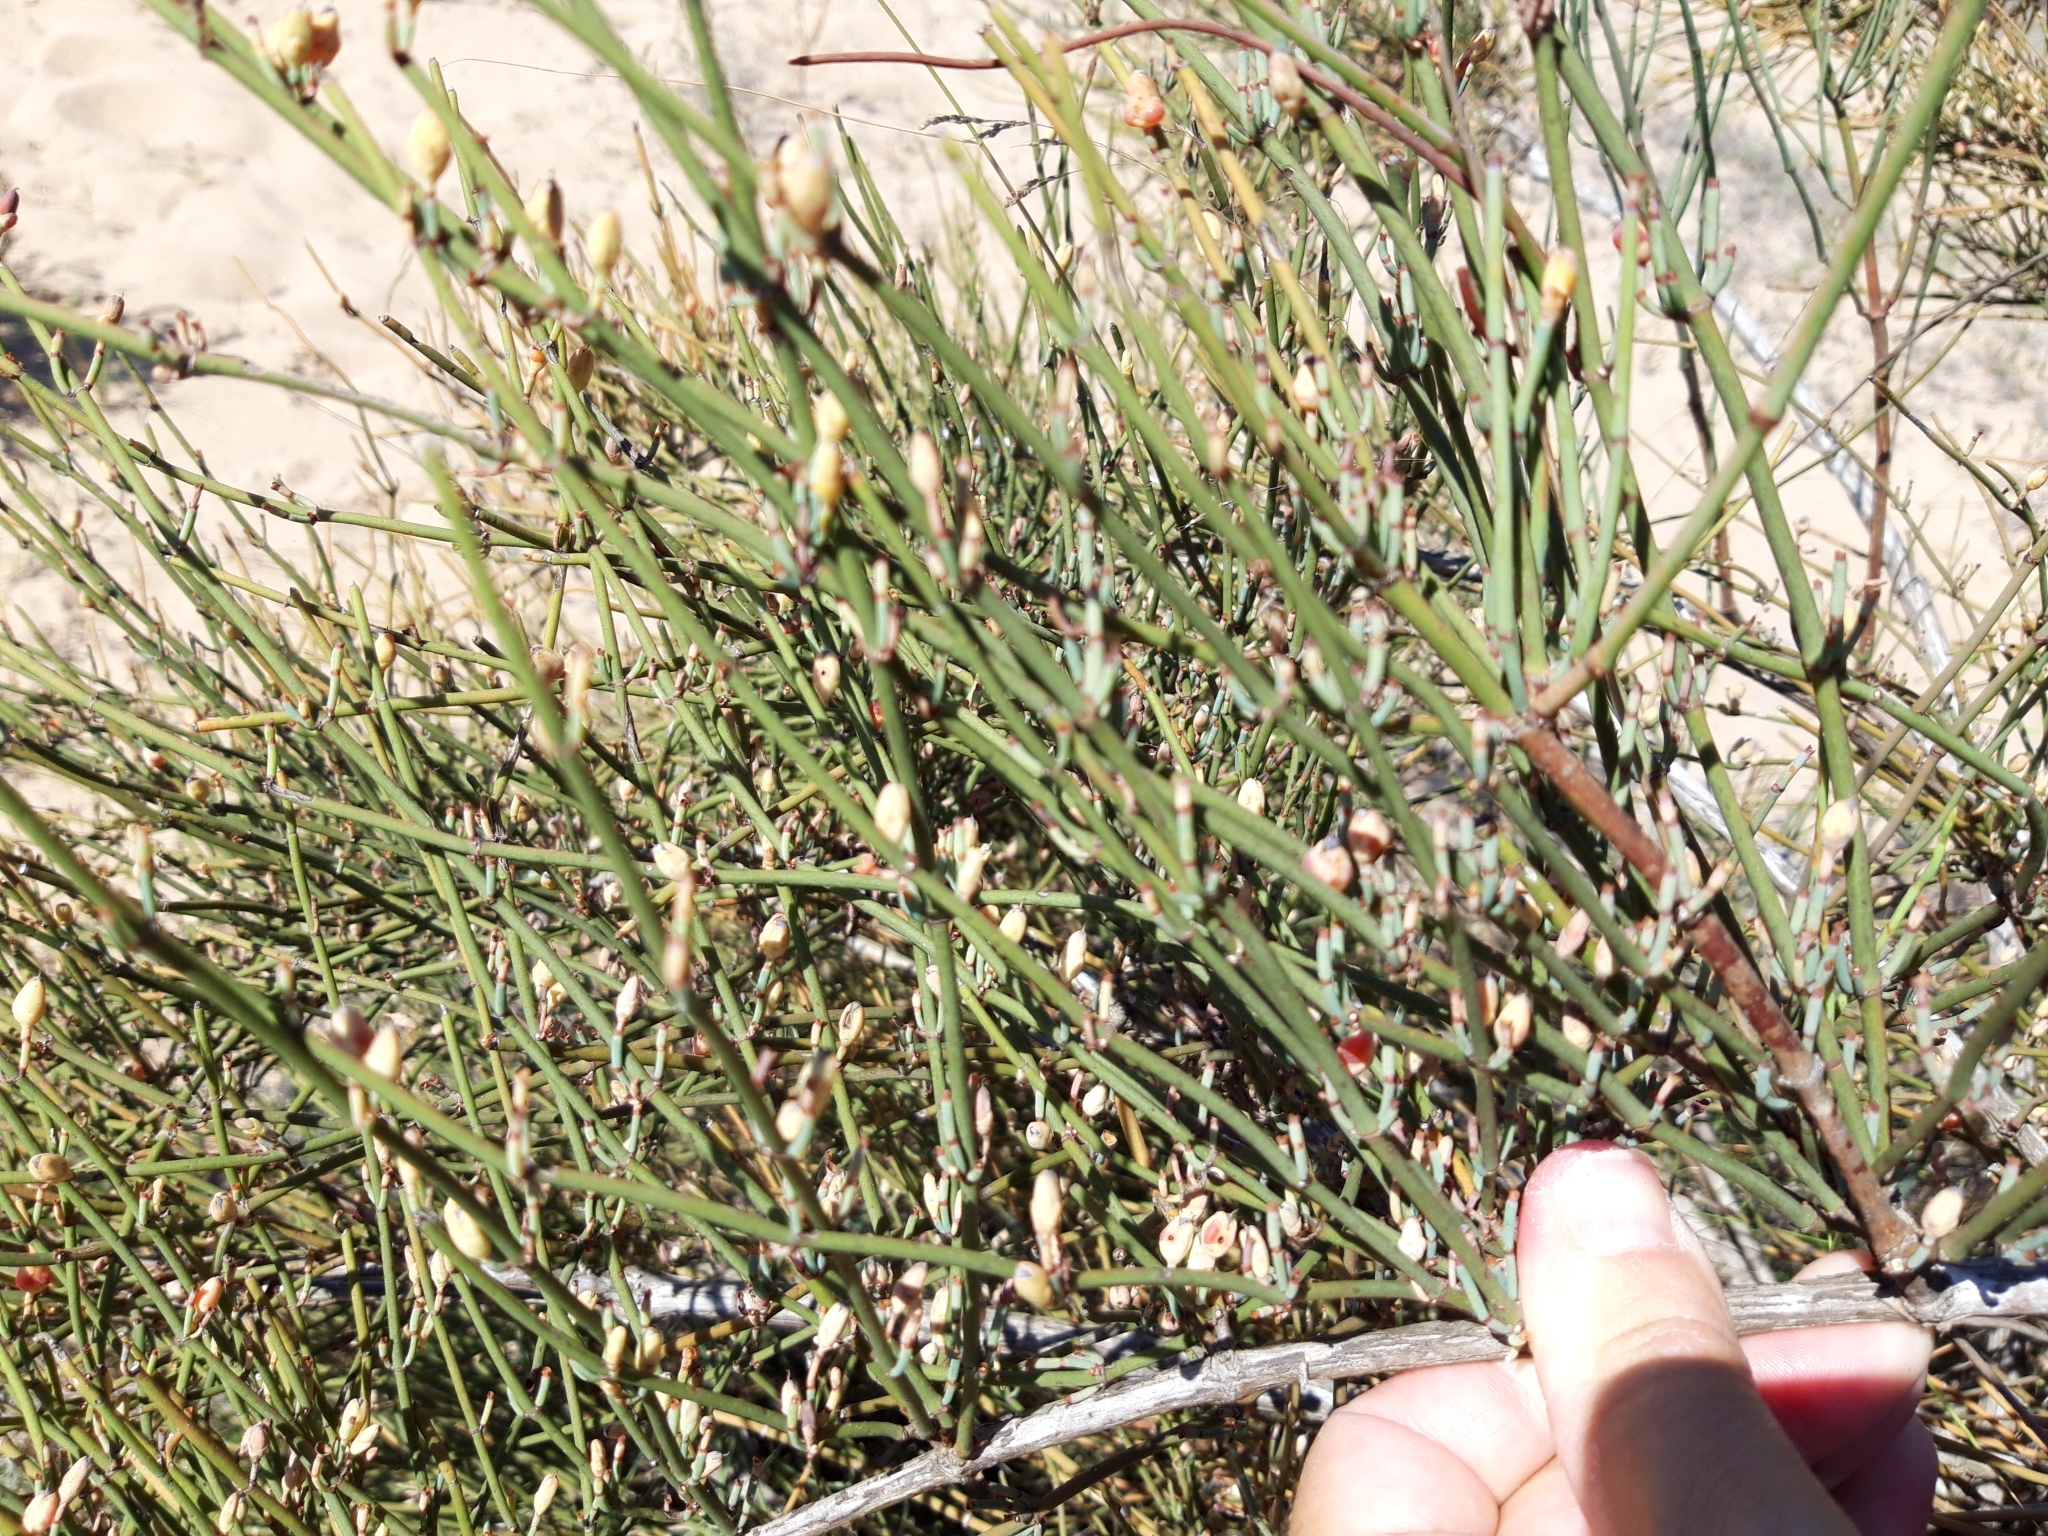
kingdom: Plantae
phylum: Tracheophyta
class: Gnetopsida
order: Ephedrales
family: Ephedraceae
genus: Ephedra
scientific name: Ephedra fragilis
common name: Joint pine
